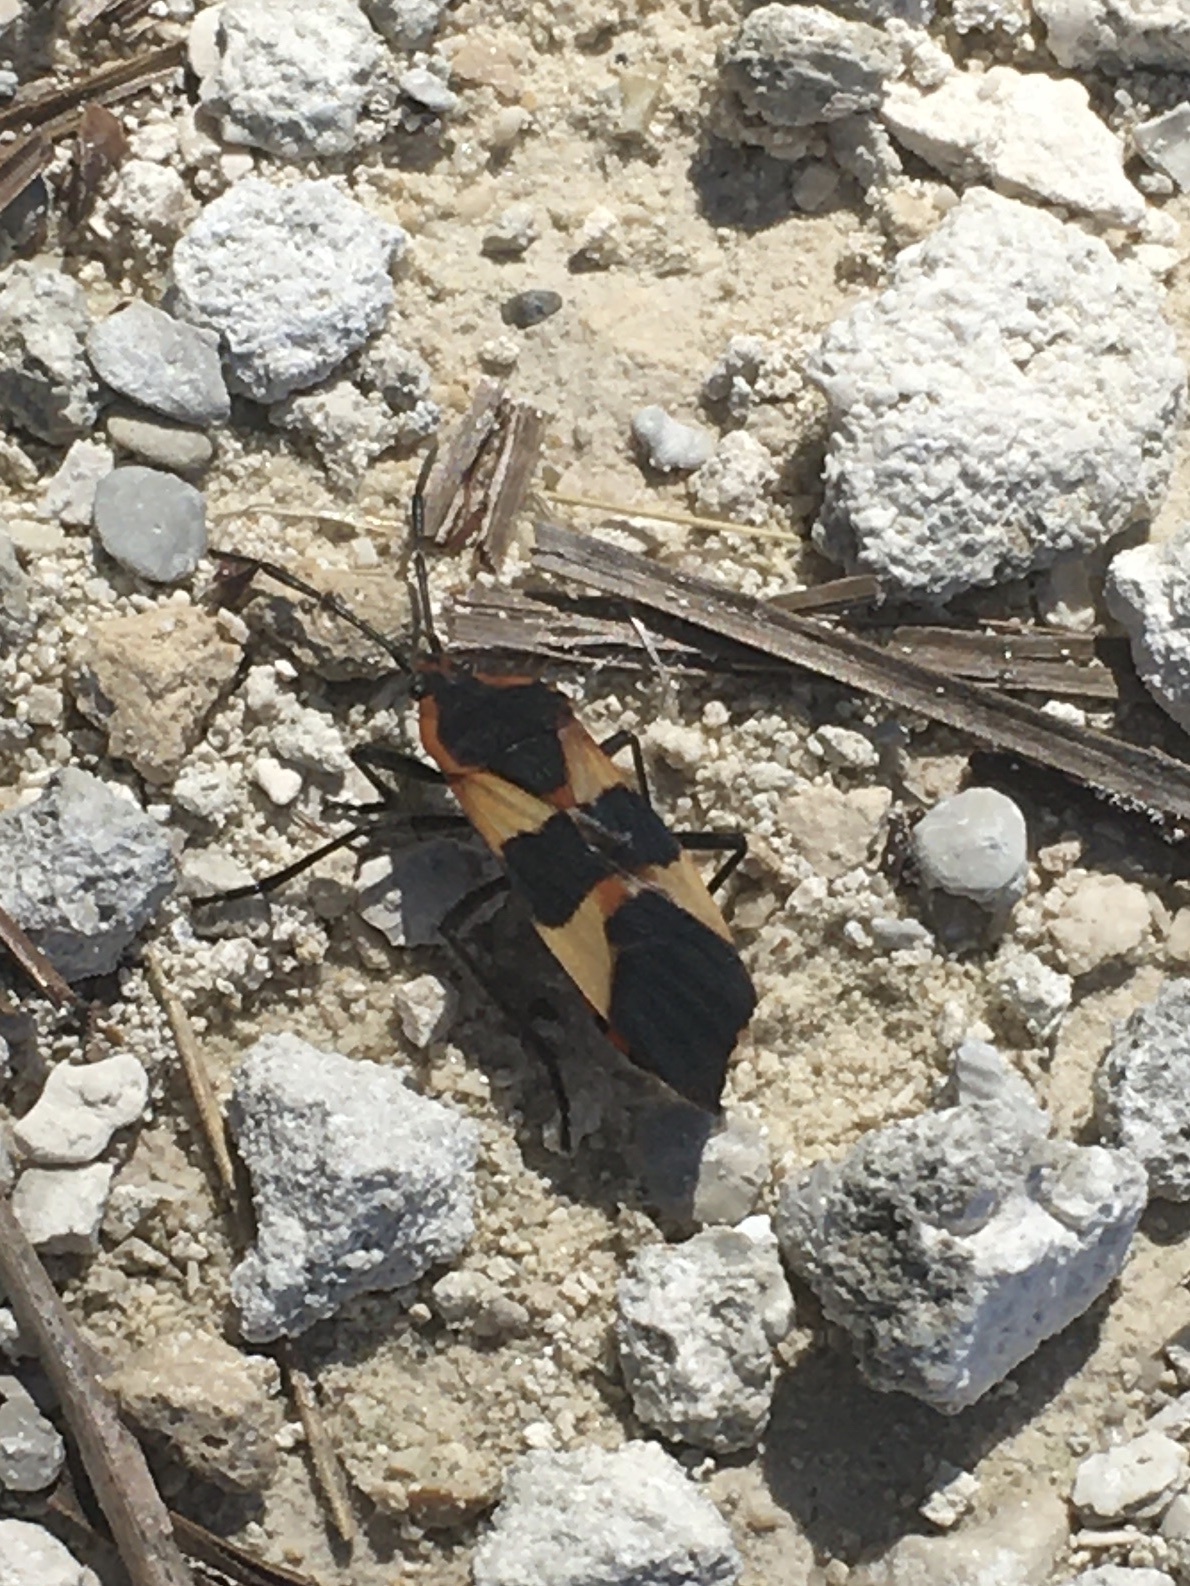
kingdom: Animalia
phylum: Arthropoda
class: Insecta
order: Hemiptera
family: Lygaeidae
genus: Oncopeltus
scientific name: Oncopeltus fasciatus
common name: Large milkweed bug
